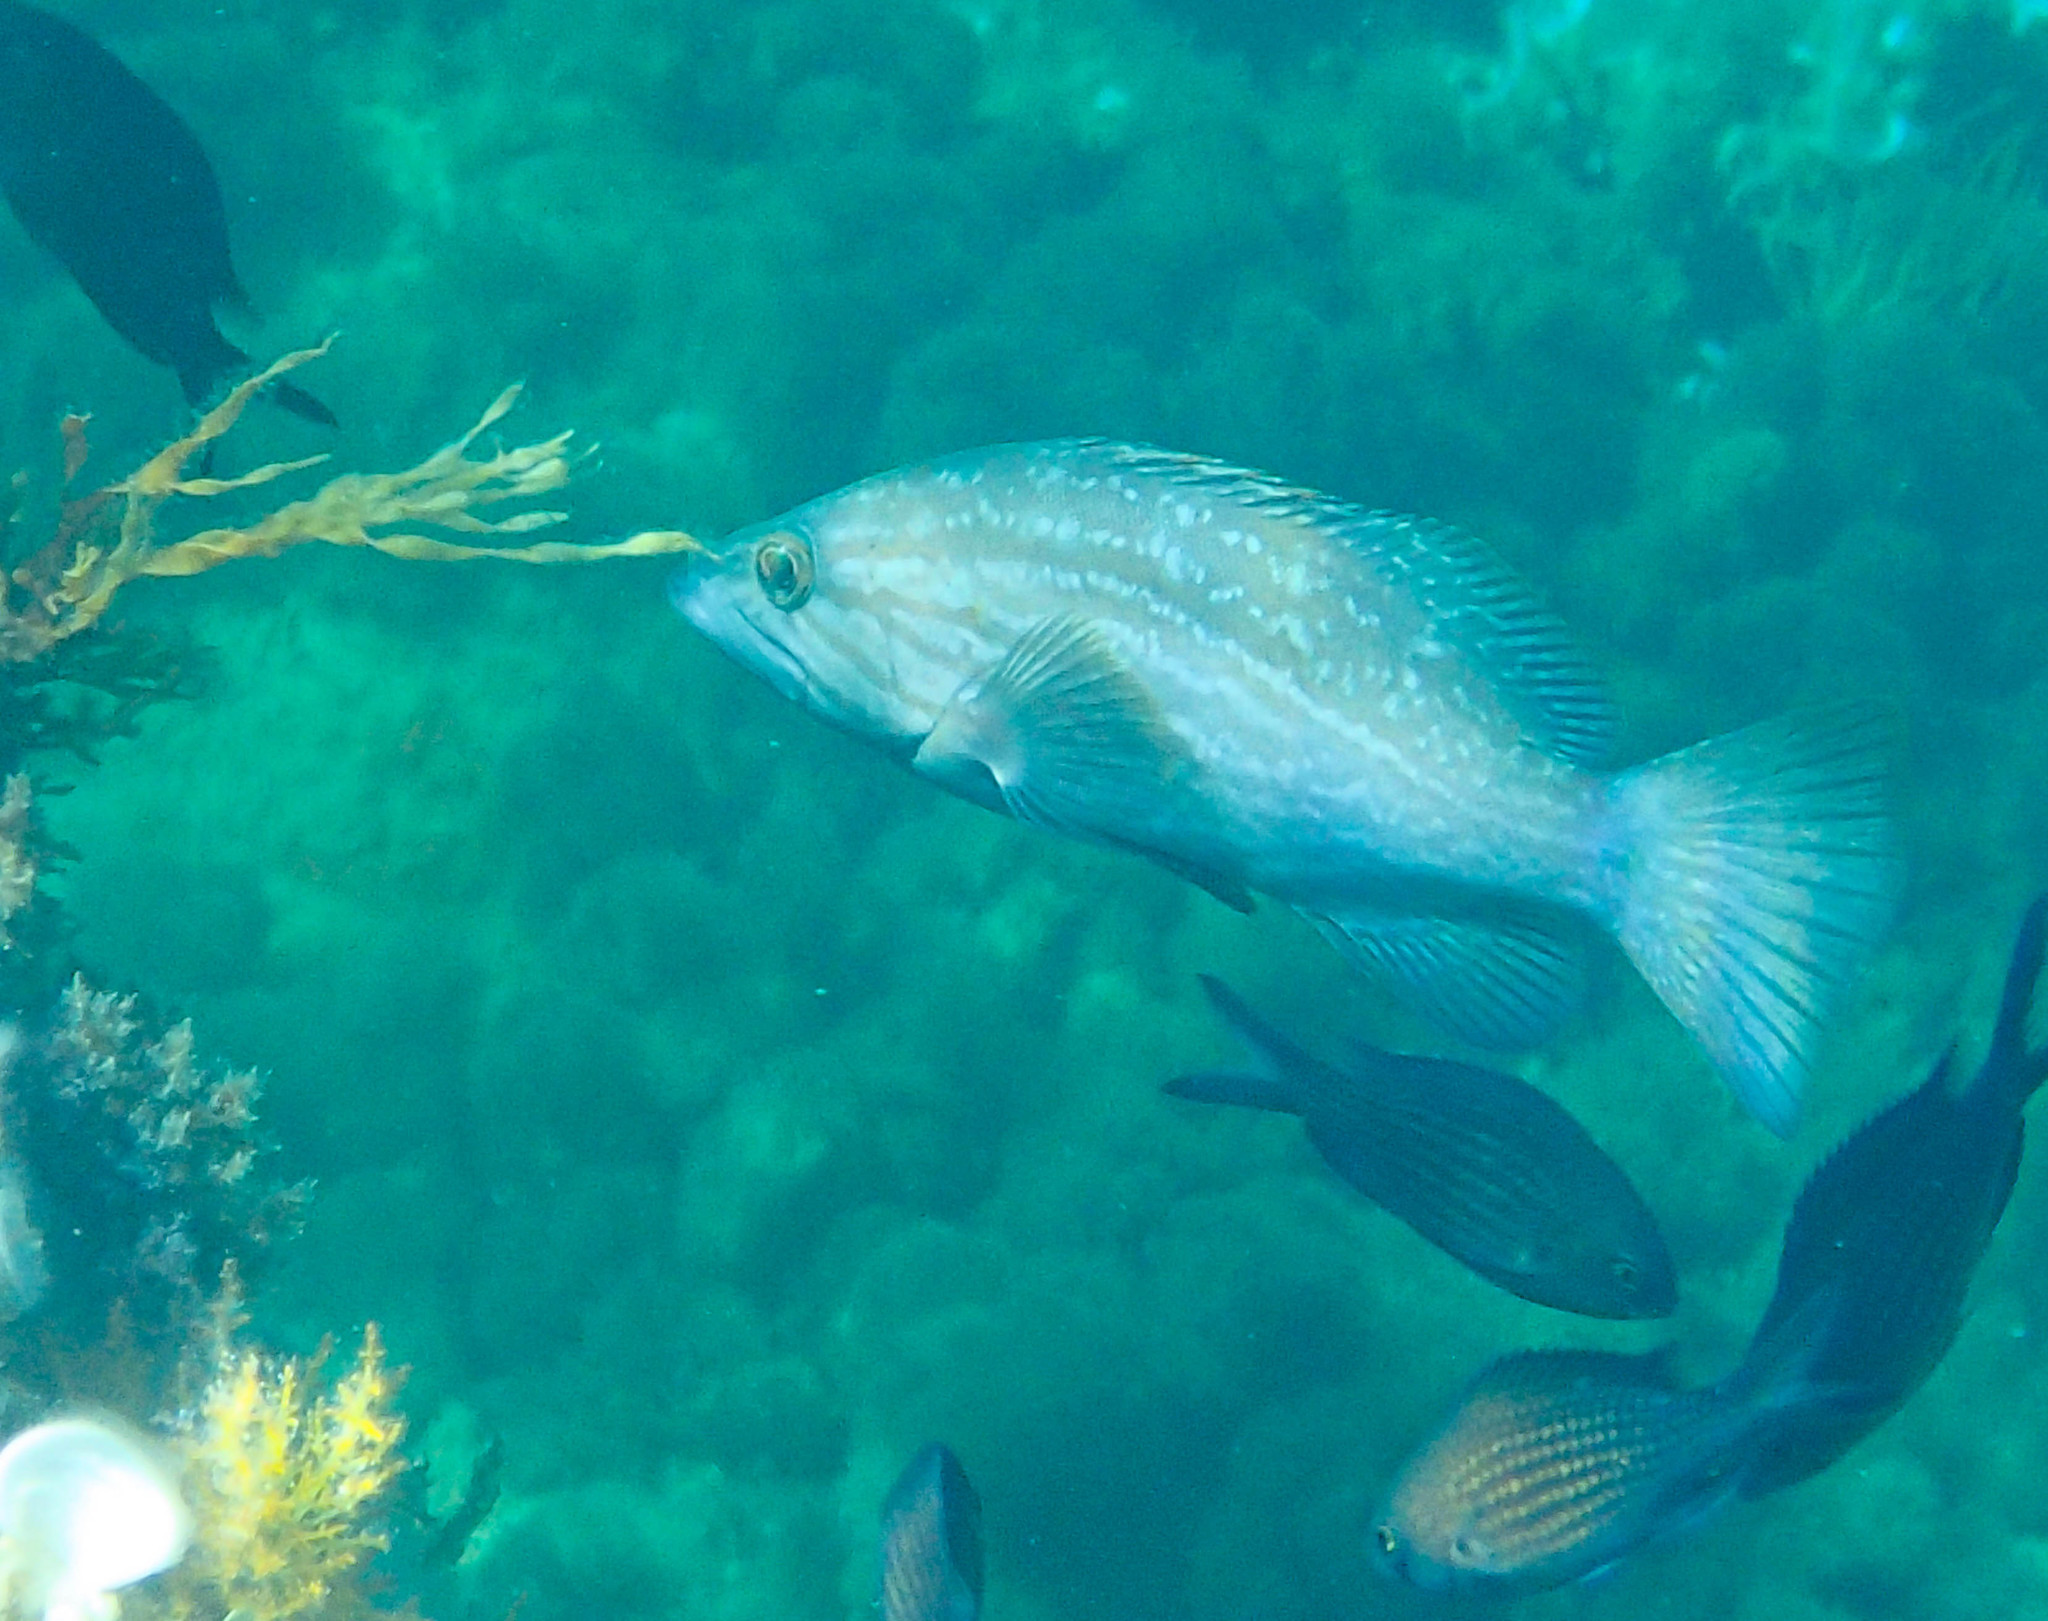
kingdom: Animalia
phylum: Chordata
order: Perciformes
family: Serranidae
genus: Mycteroperca
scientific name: Mycteroperca rubra
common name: Comb grouper
